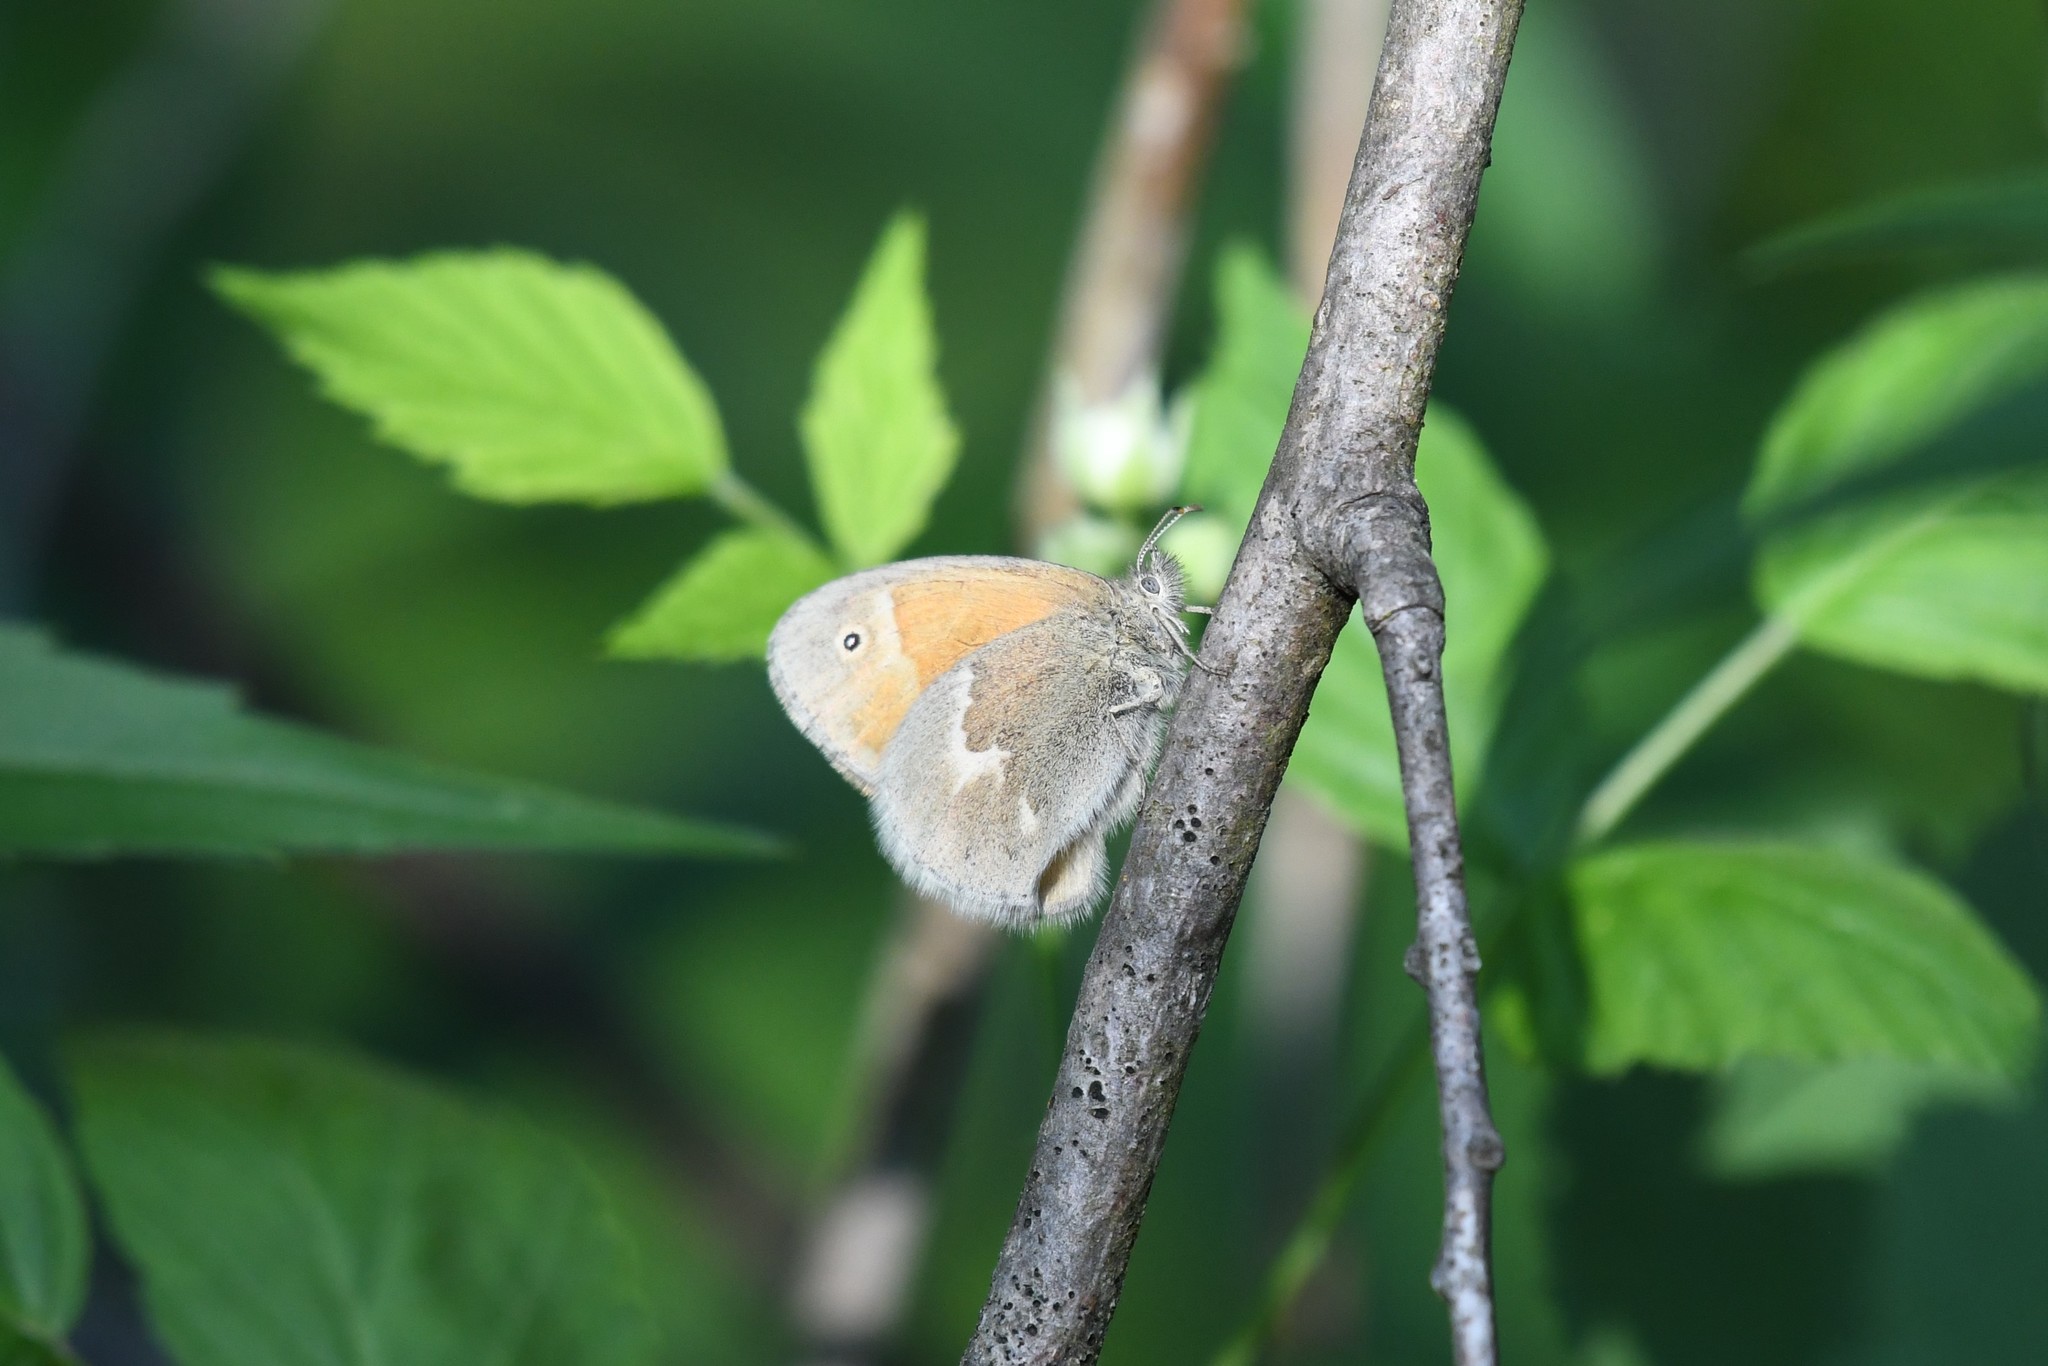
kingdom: Animalia
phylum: Arthropoda
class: Insecta
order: Lepidoptera
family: Nymphalidae
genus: Coenonympha
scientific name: Coenonympha california
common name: Common ringlet
